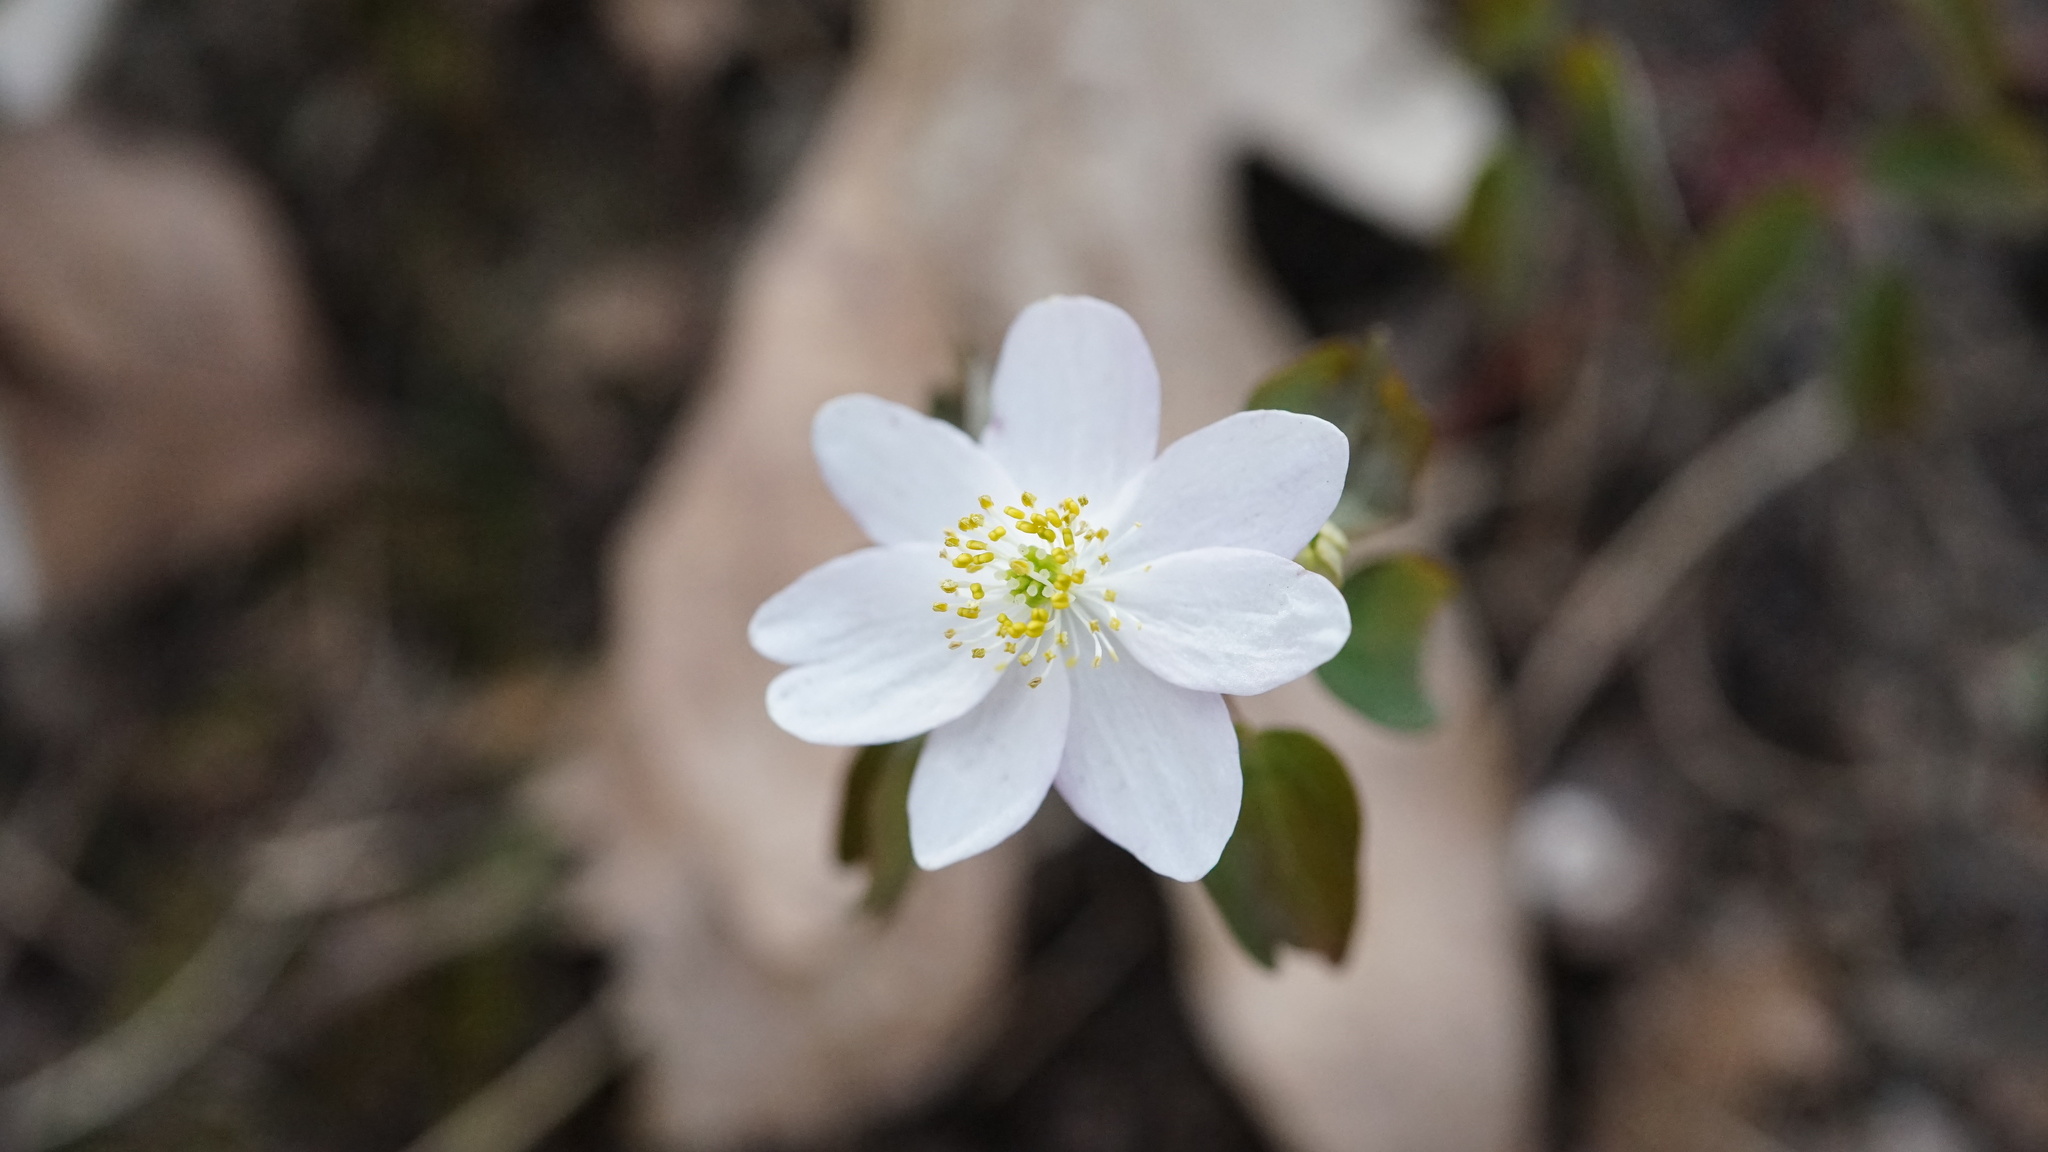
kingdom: Plantae
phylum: Tracheophyta
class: Magnoliopsida
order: Ranunculales
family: Ranunculaceae
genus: Thalictrum
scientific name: Thalictrum thalictroides
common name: Rue-anemone
